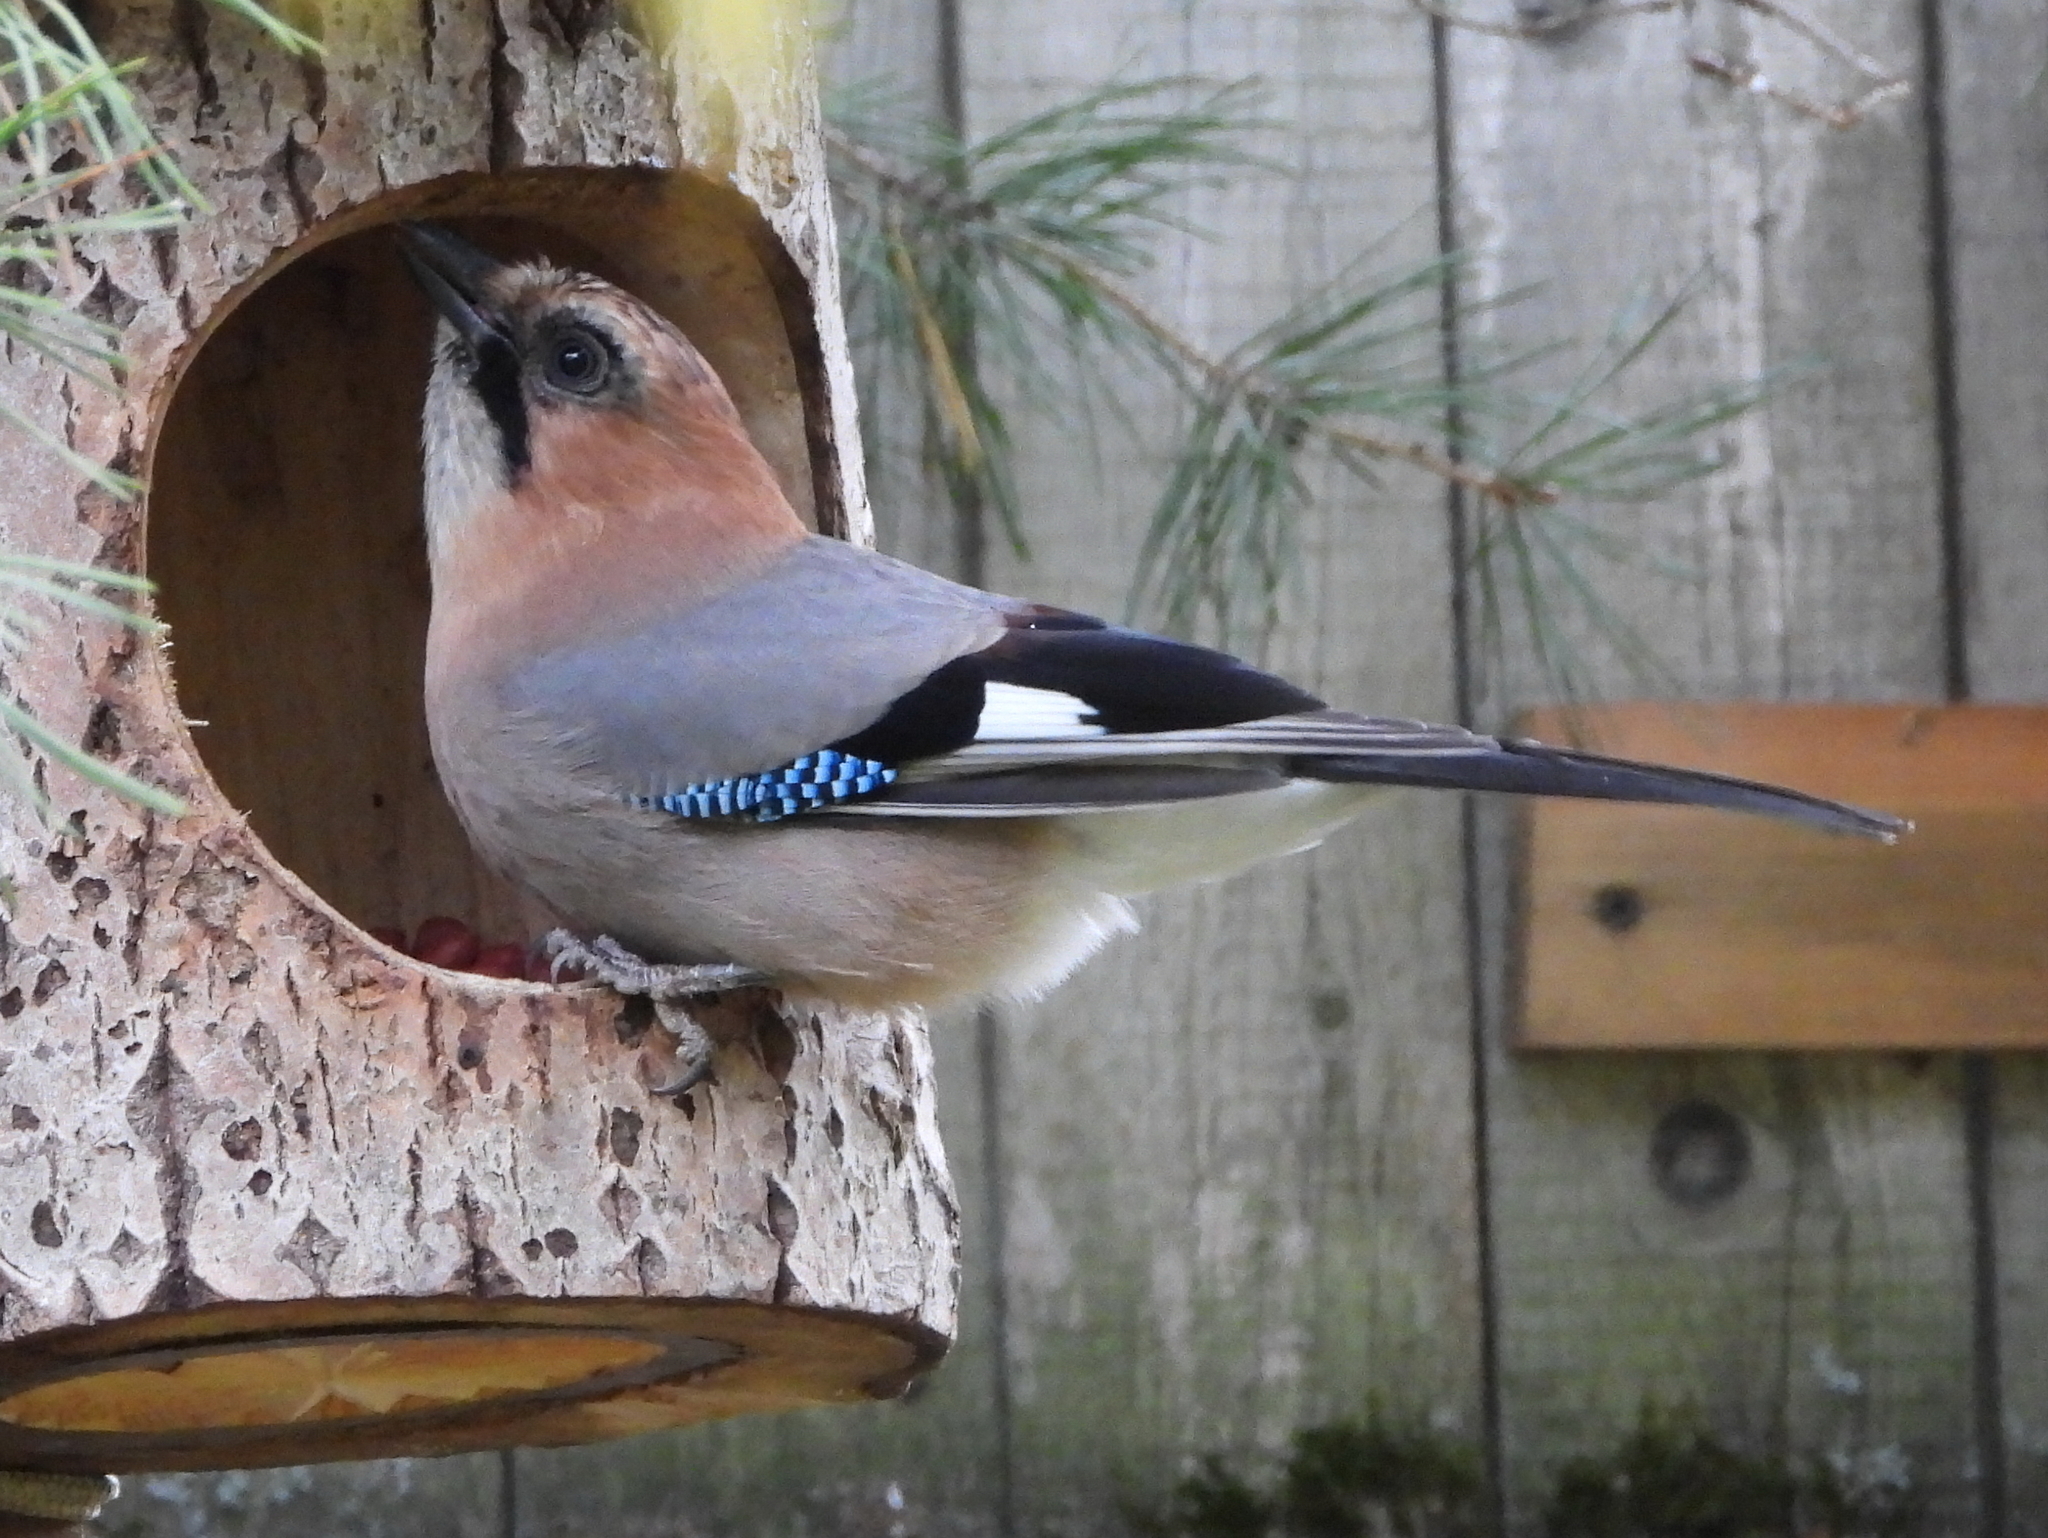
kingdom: Animalia
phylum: Chordata
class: Aves
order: Passeriformes
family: Corvidae
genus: Garrulus
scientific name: Garrulus glandarius
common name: Eurasian jay
